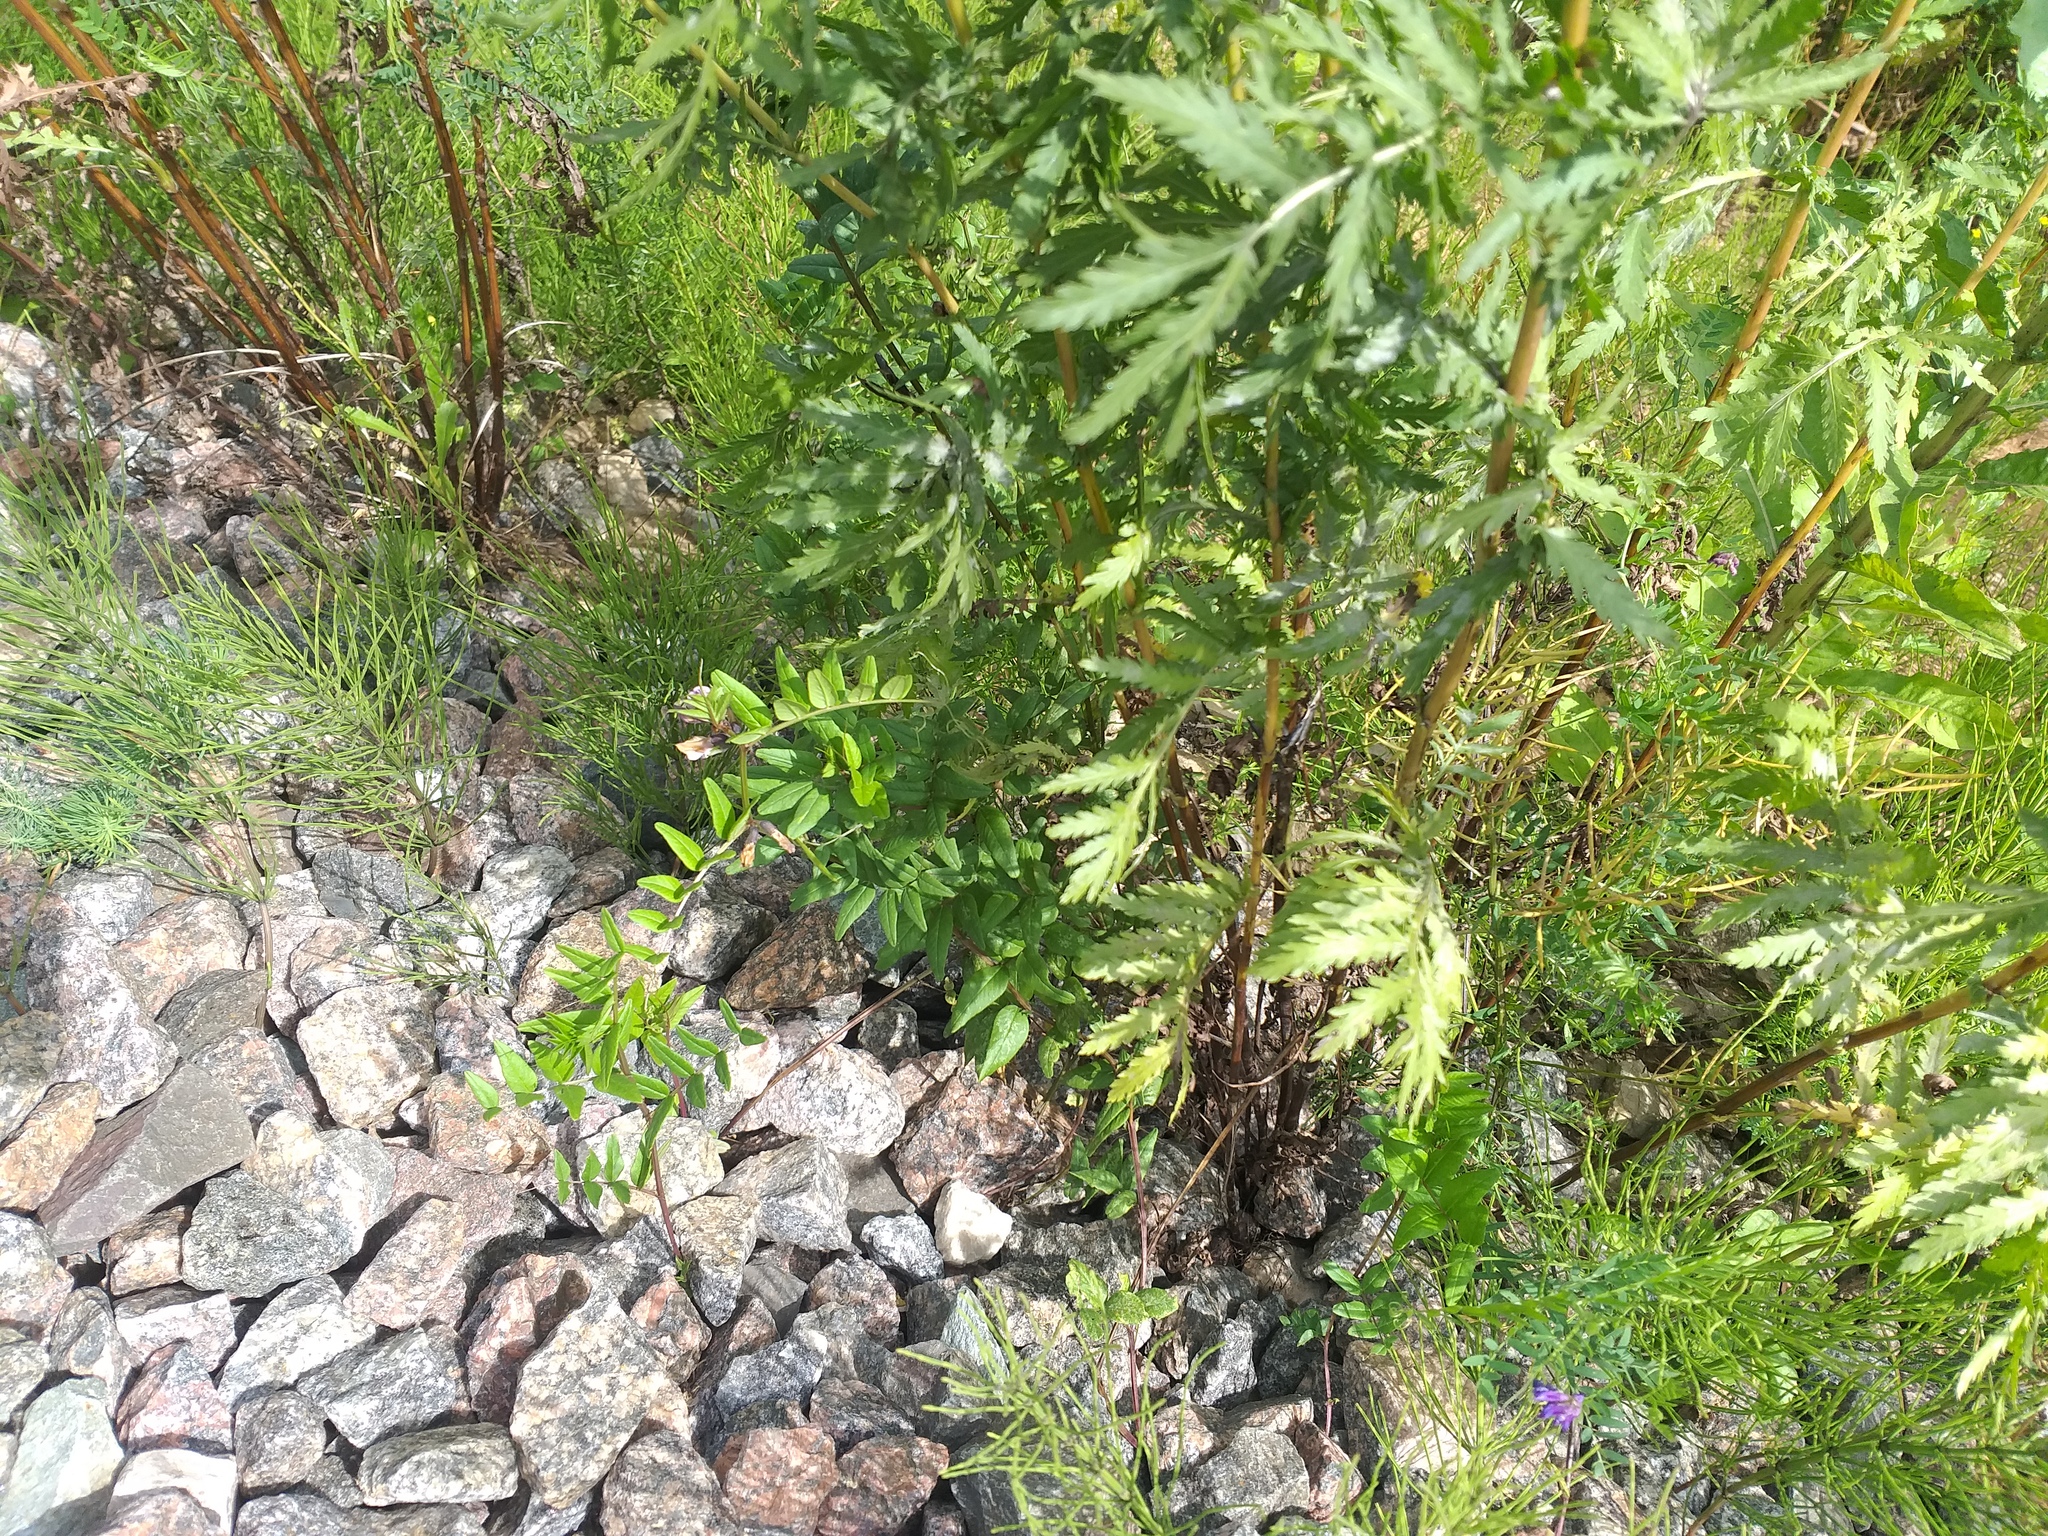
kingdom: Plantae
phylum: Tracheophyta
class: Magnoliopsida
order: Fabales
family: Fabaceae
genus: Vicia
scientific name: Vicia sepium
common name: Bush vetch
